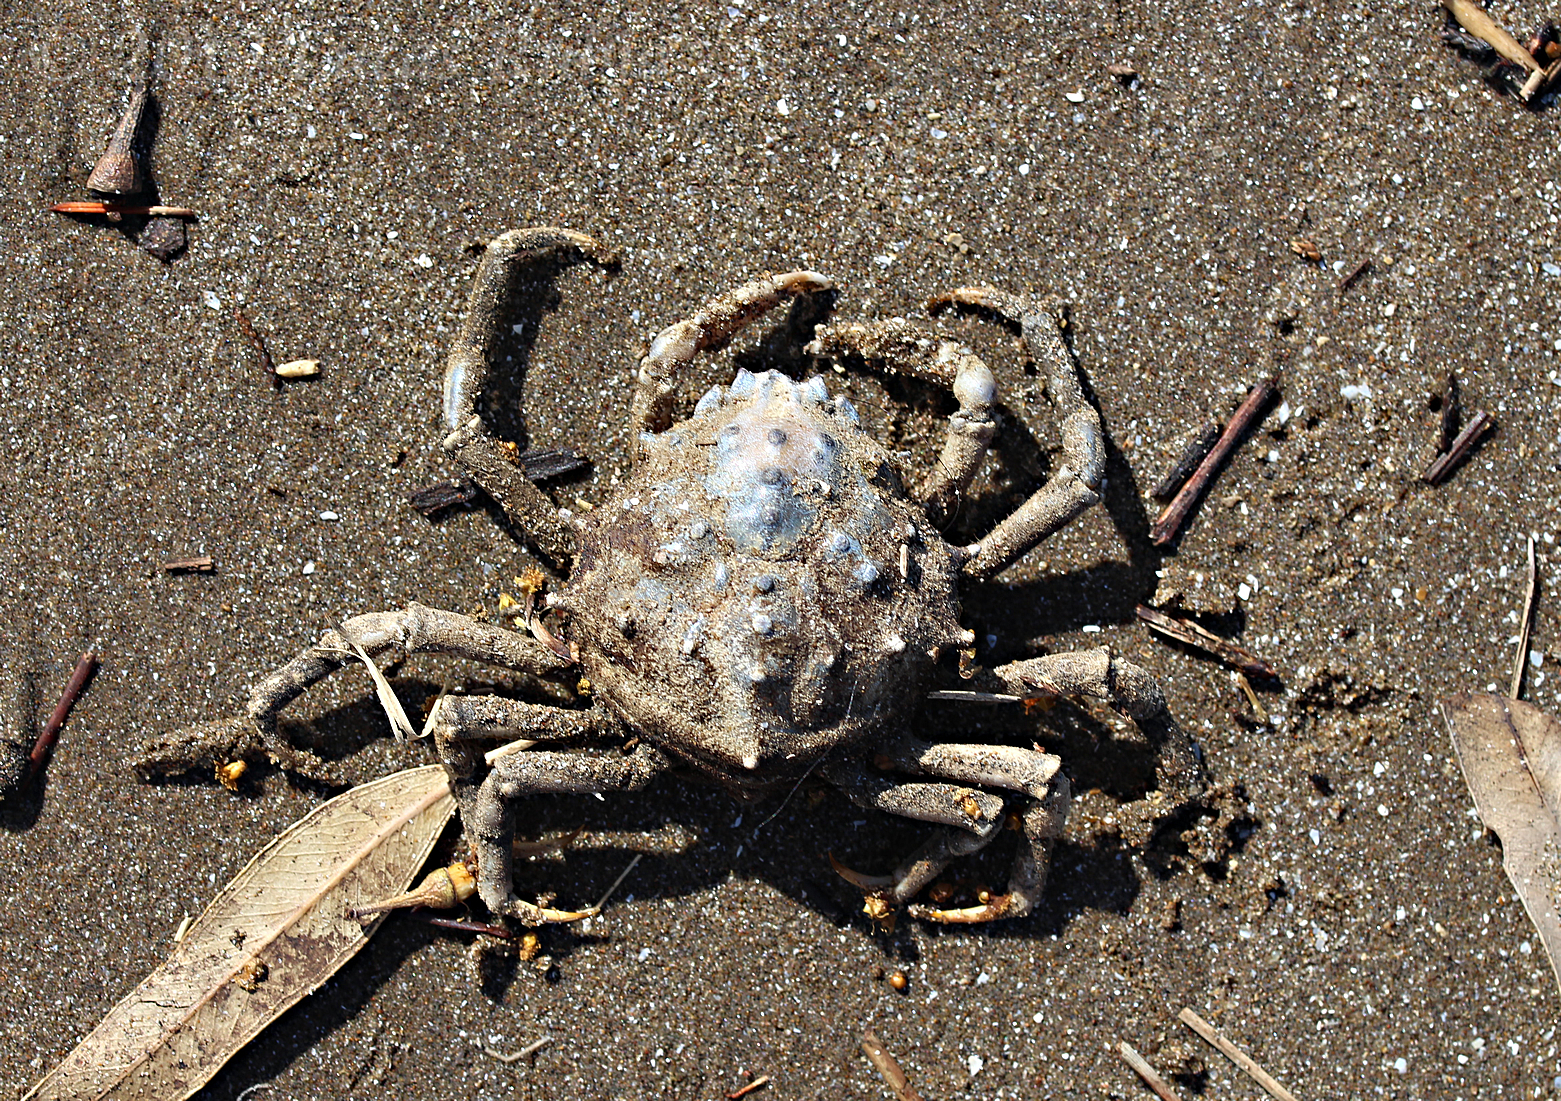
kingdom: Animalia
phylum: Arthropoda
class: Malacostraca
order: Decapoda
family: Epialtidae
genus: Libinia
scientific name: Libinia spinosa
